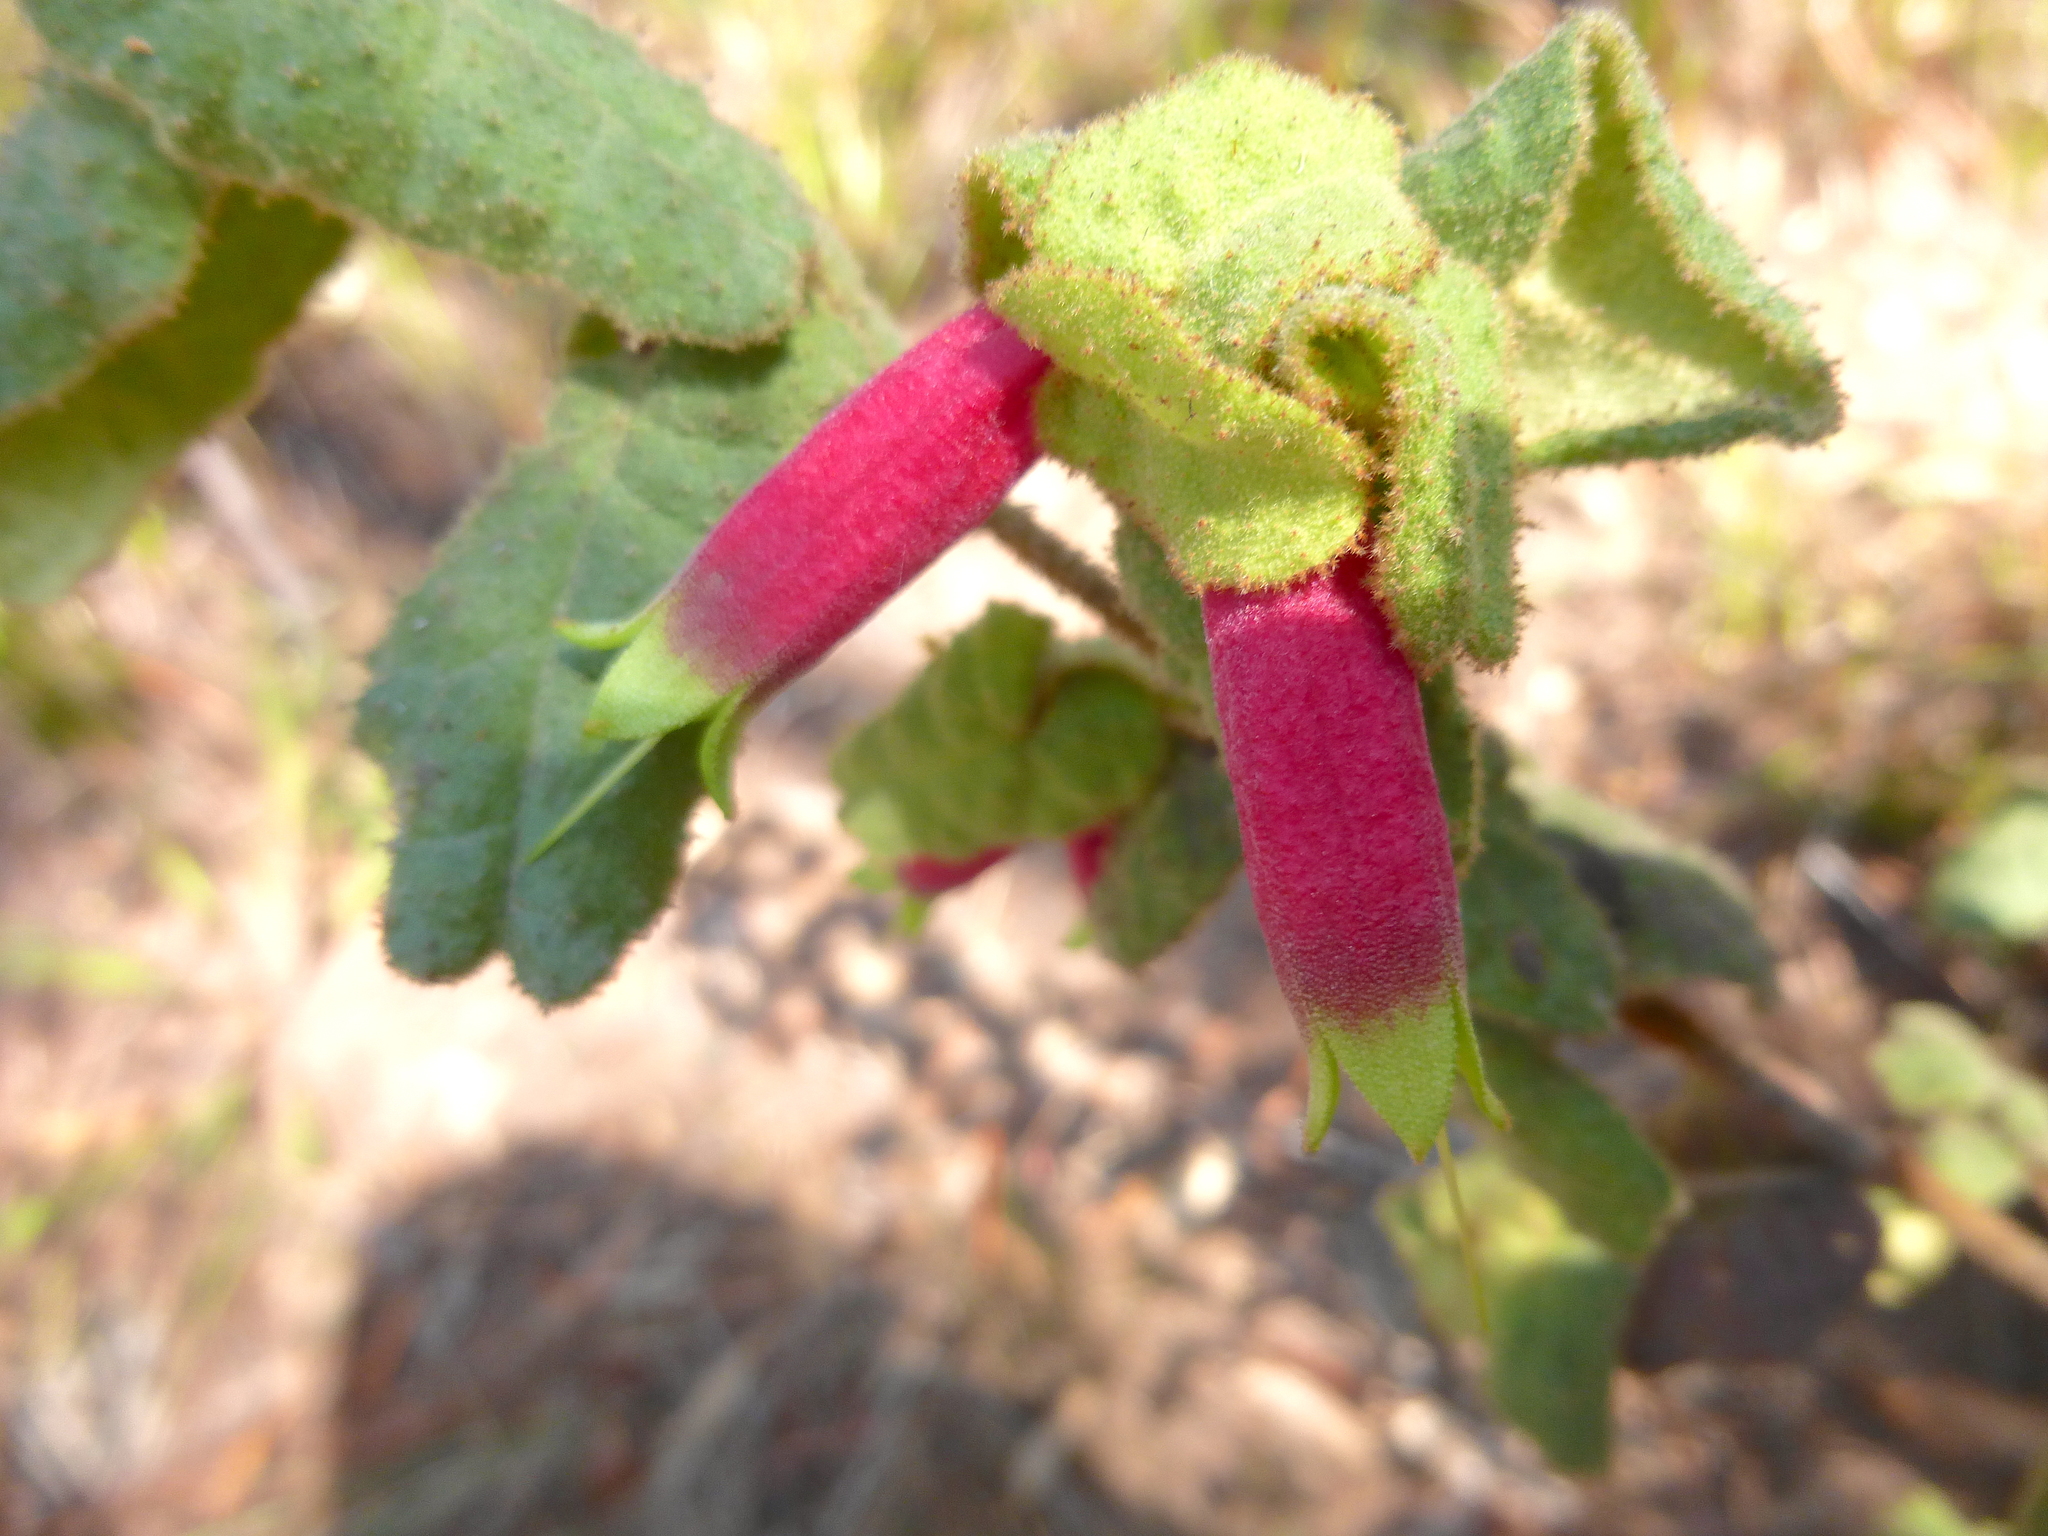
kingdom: Plantae
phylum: Tracheophyta
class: Magnoliopsida
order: Sapindales
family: Rutaceae
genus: Correa
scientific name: Correa reflexa
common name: Common correa
